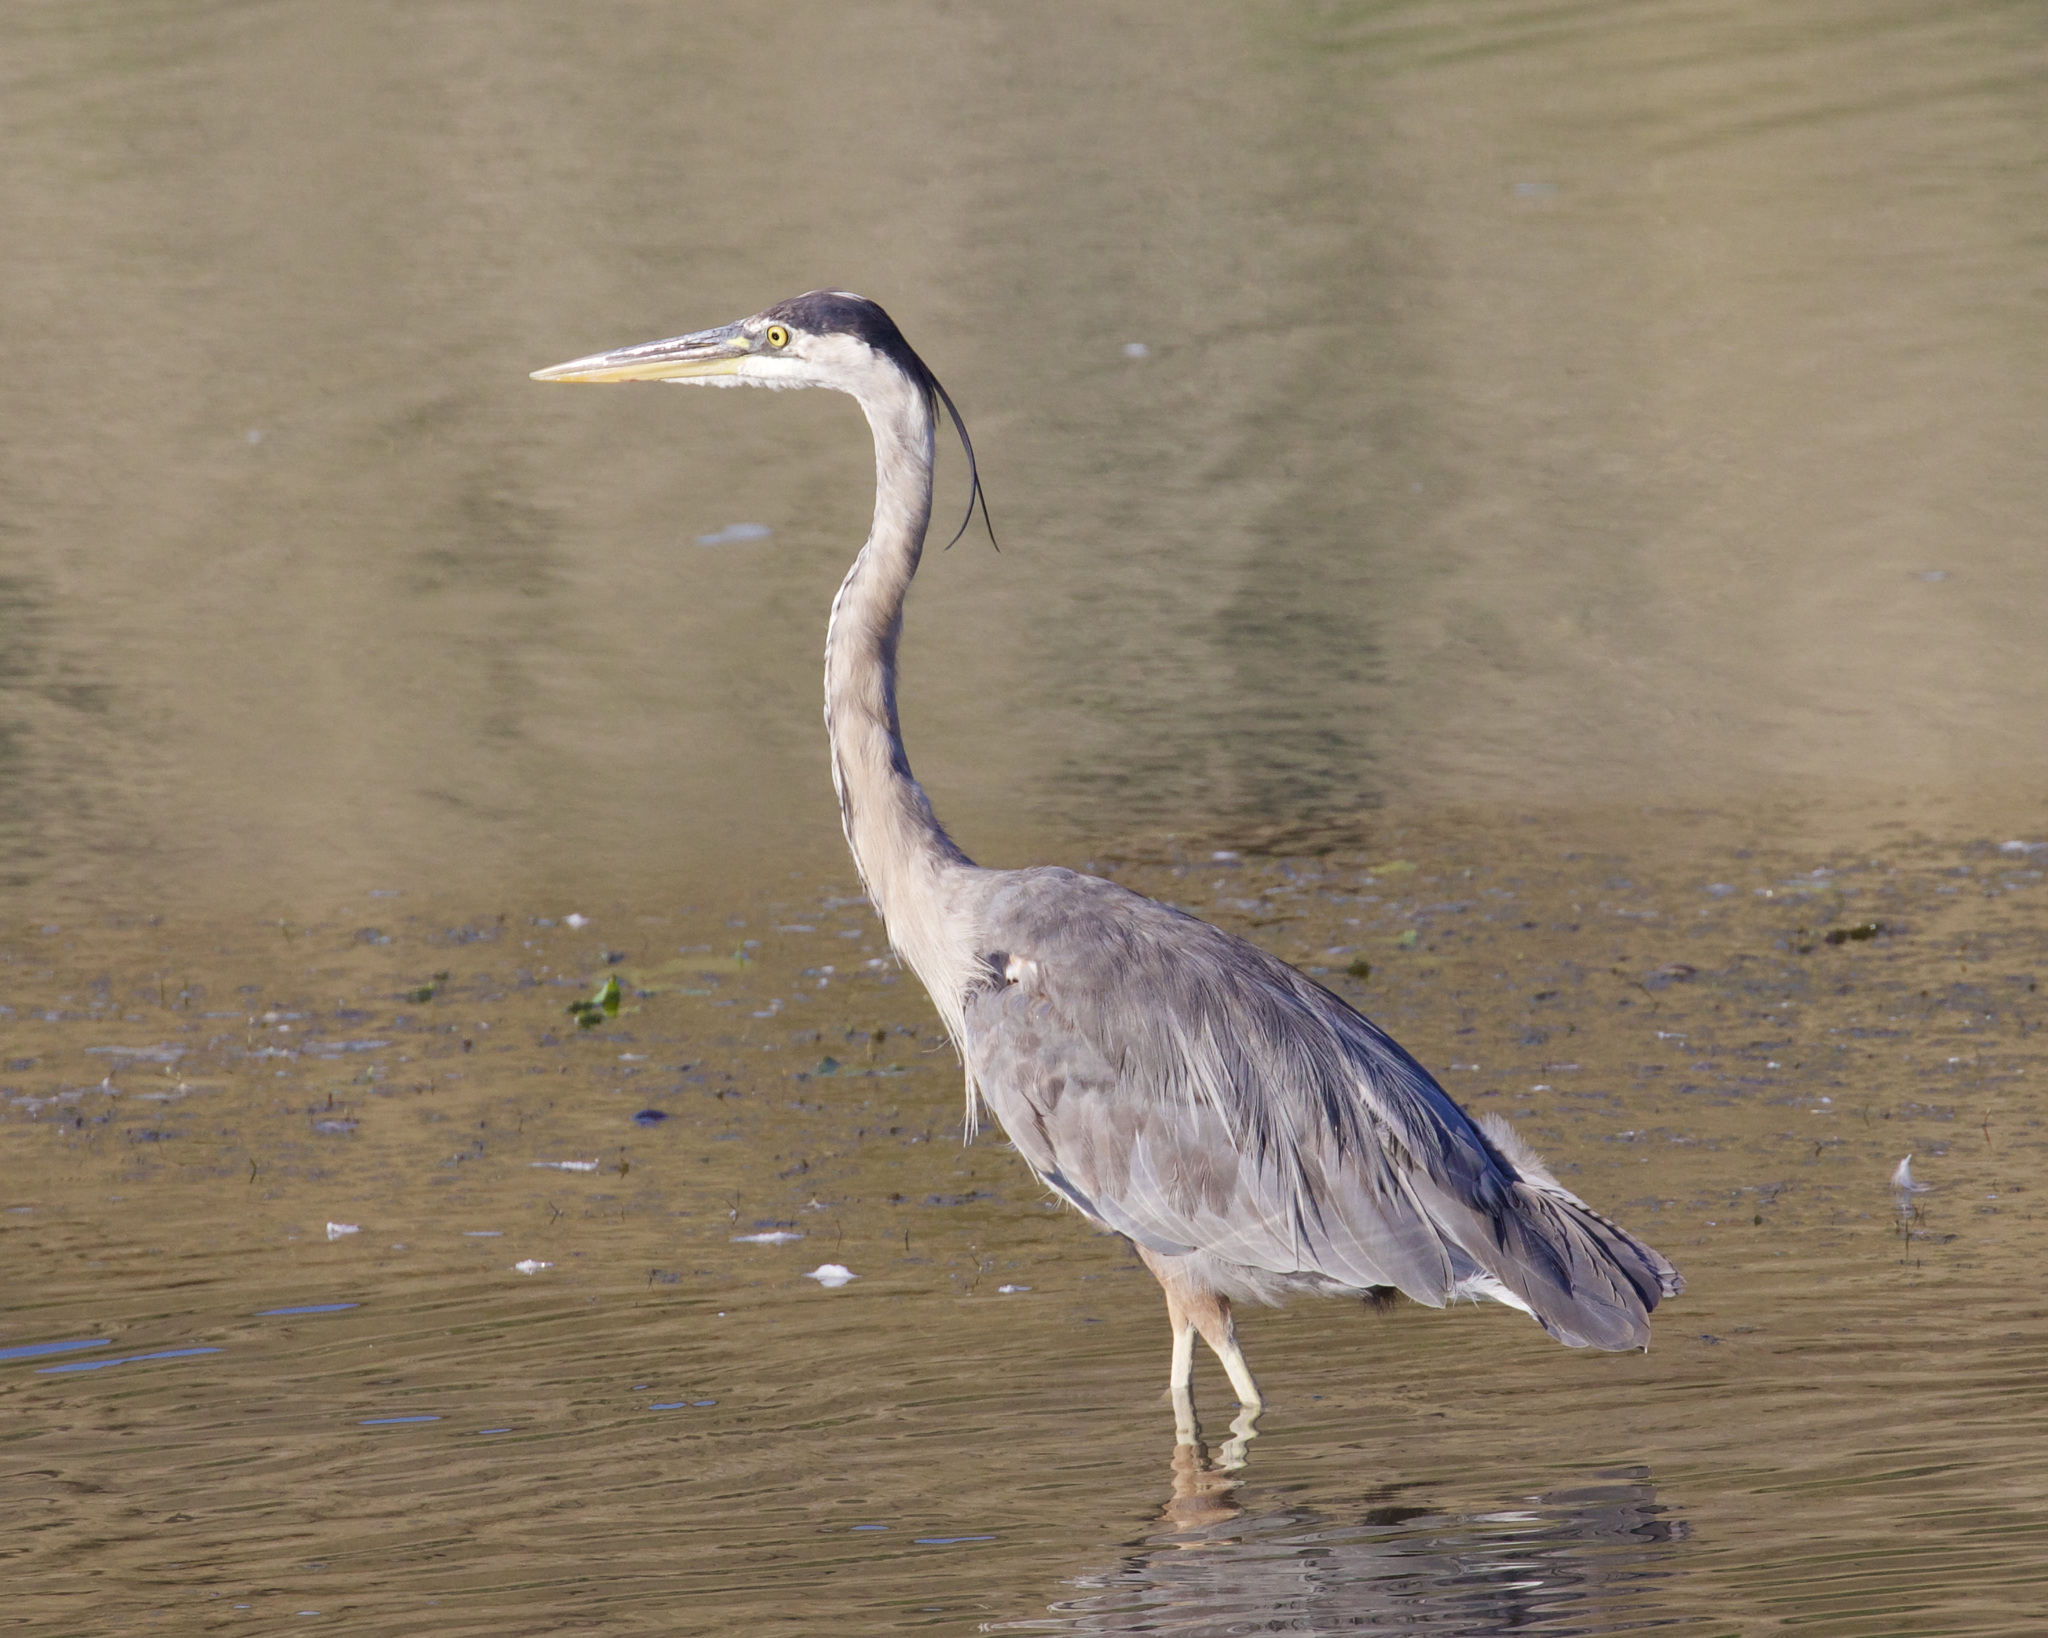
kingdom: Animalia
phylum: Chordata
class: Aves
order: Pelecaniformes
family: Ardeidae
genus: Ardea
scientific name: Ardea herodias
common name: Great blue heron
